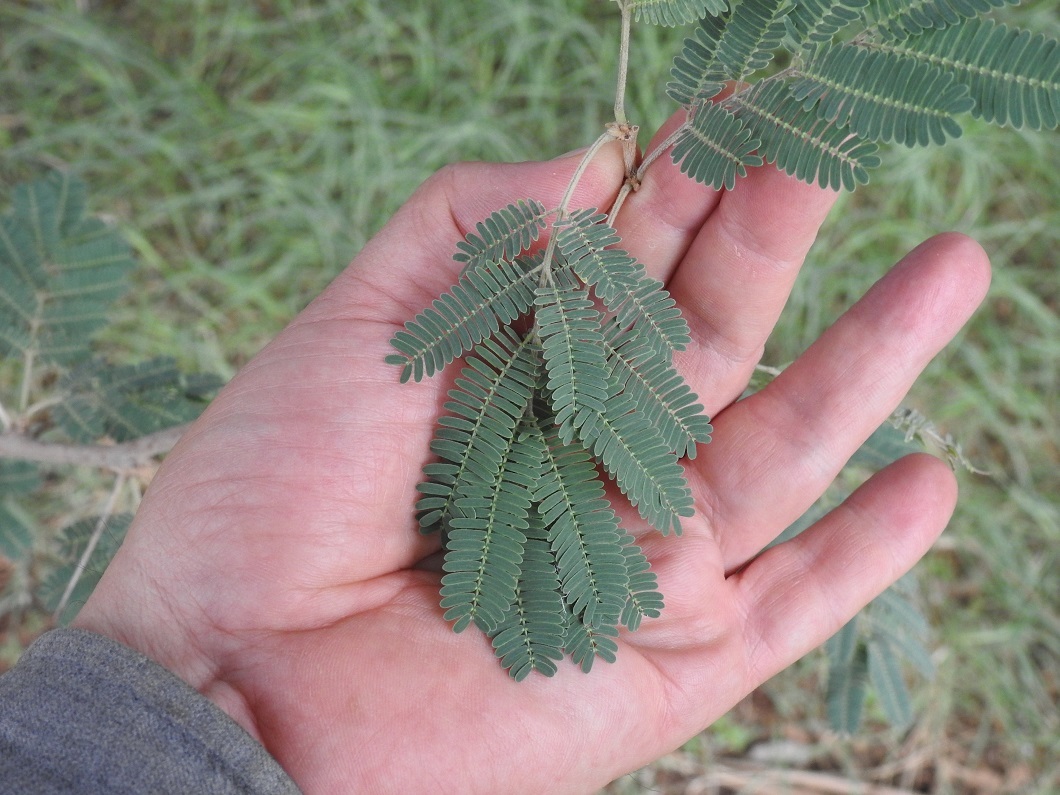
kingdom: Plantae
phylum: Tracheophyta
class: Magnoliopsida
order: Fabales
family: Fabaceae
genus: Vachellia
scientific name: Vachellia tortilis
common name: Umbrella thorn acacia
